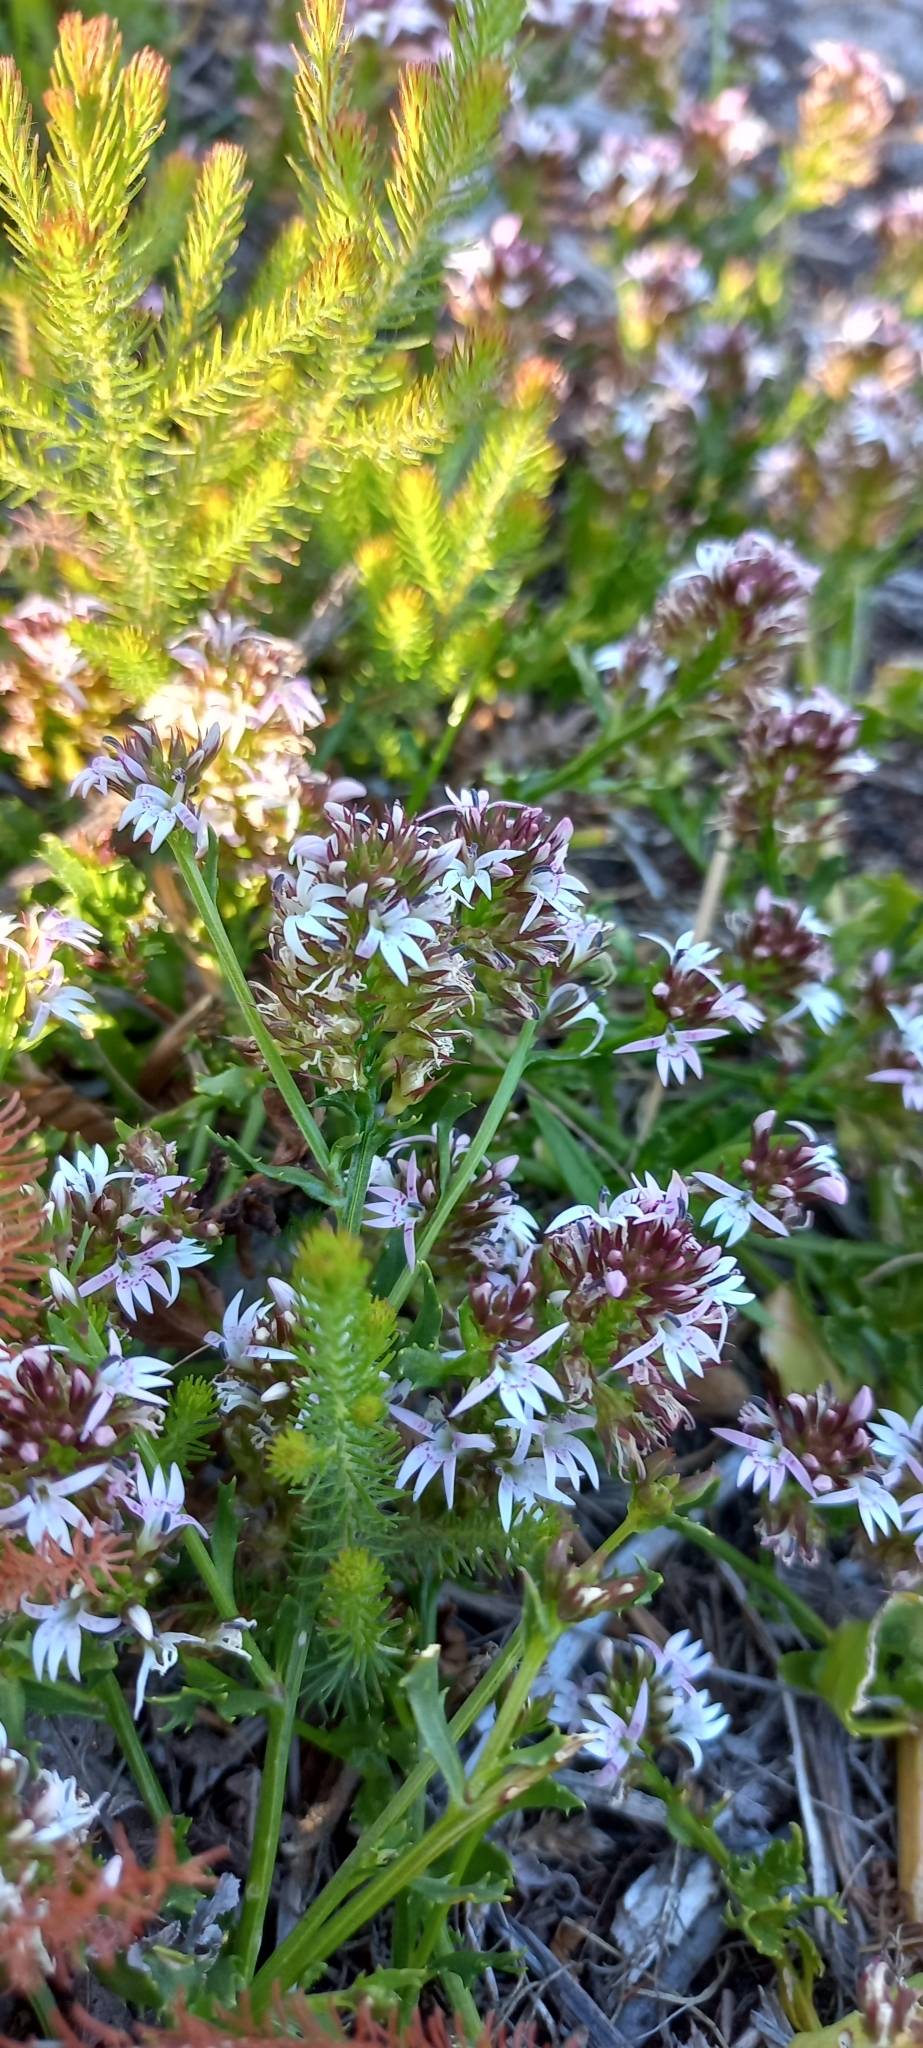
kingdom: Plantae
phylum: Tracheophyta
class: Magnoliopsida
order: Asterales
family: Campanulaceae
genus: Lobelia
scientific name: Lobelia jasionoides
